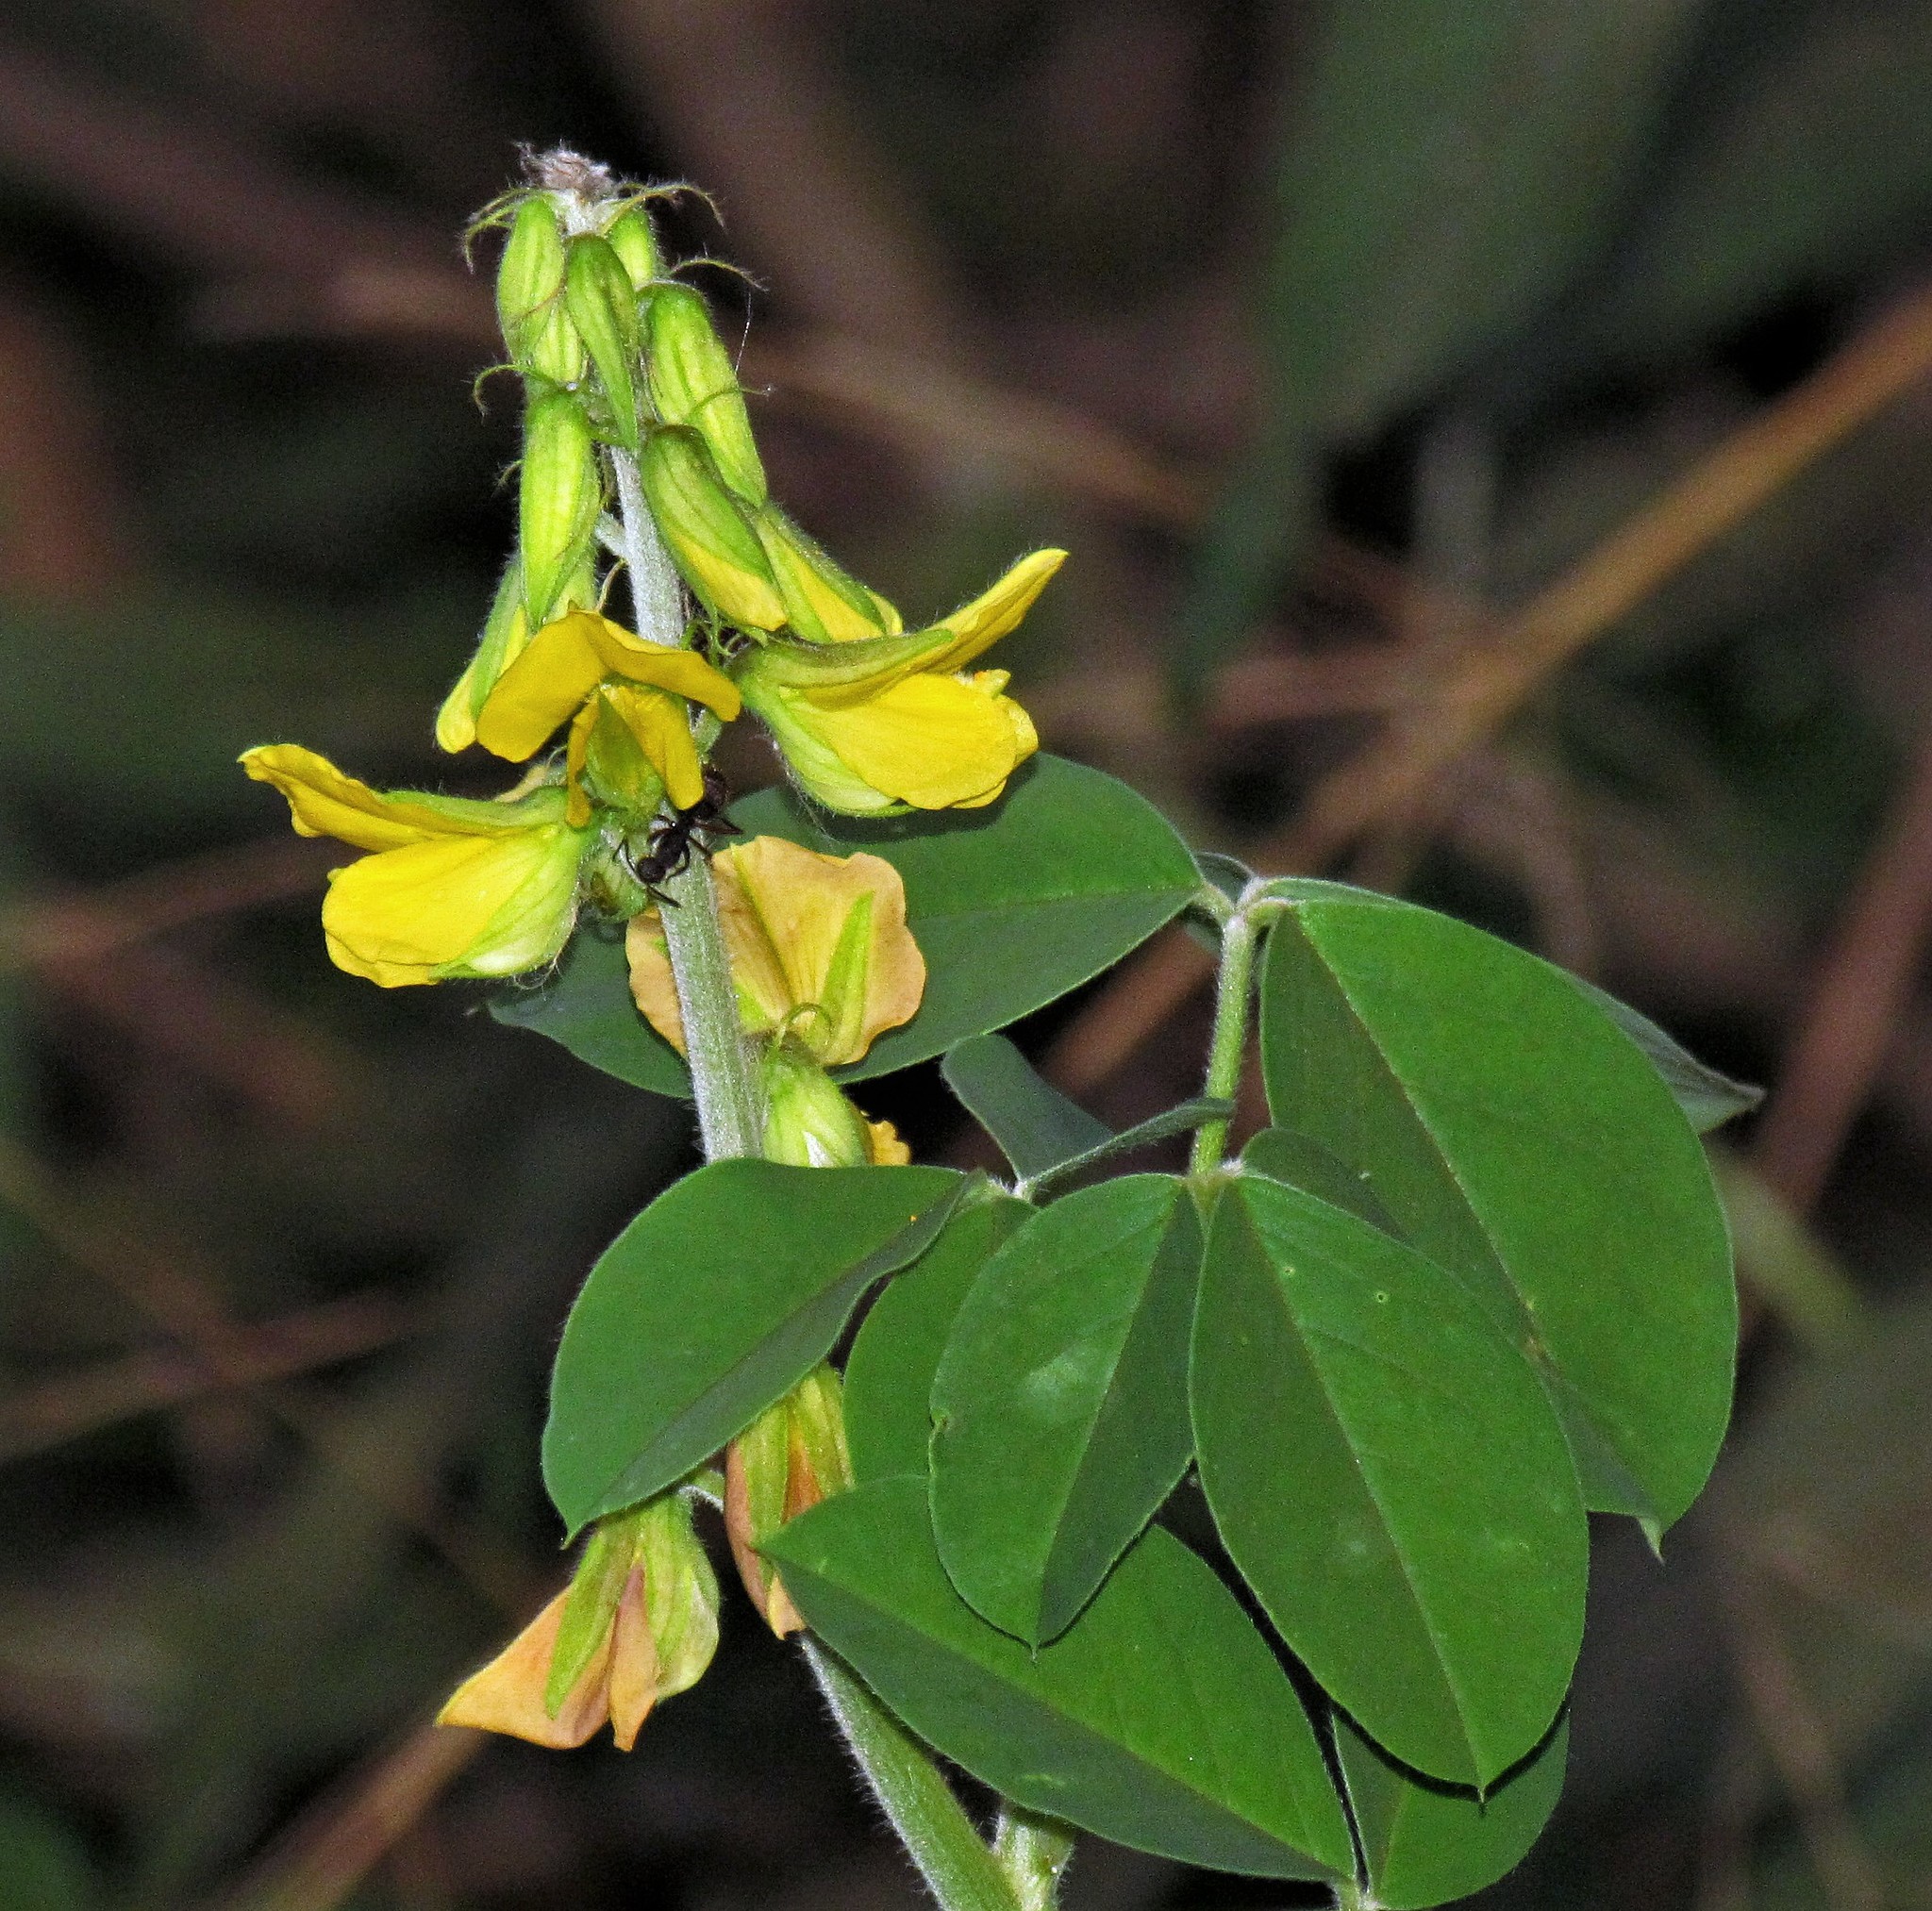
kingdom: Plantae
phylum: Tracheophyta
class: Magnoliopsida
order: Fabales
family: Fabaceae
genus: Crotalaria
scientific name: Crotalaria incana
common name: Shakeshake
